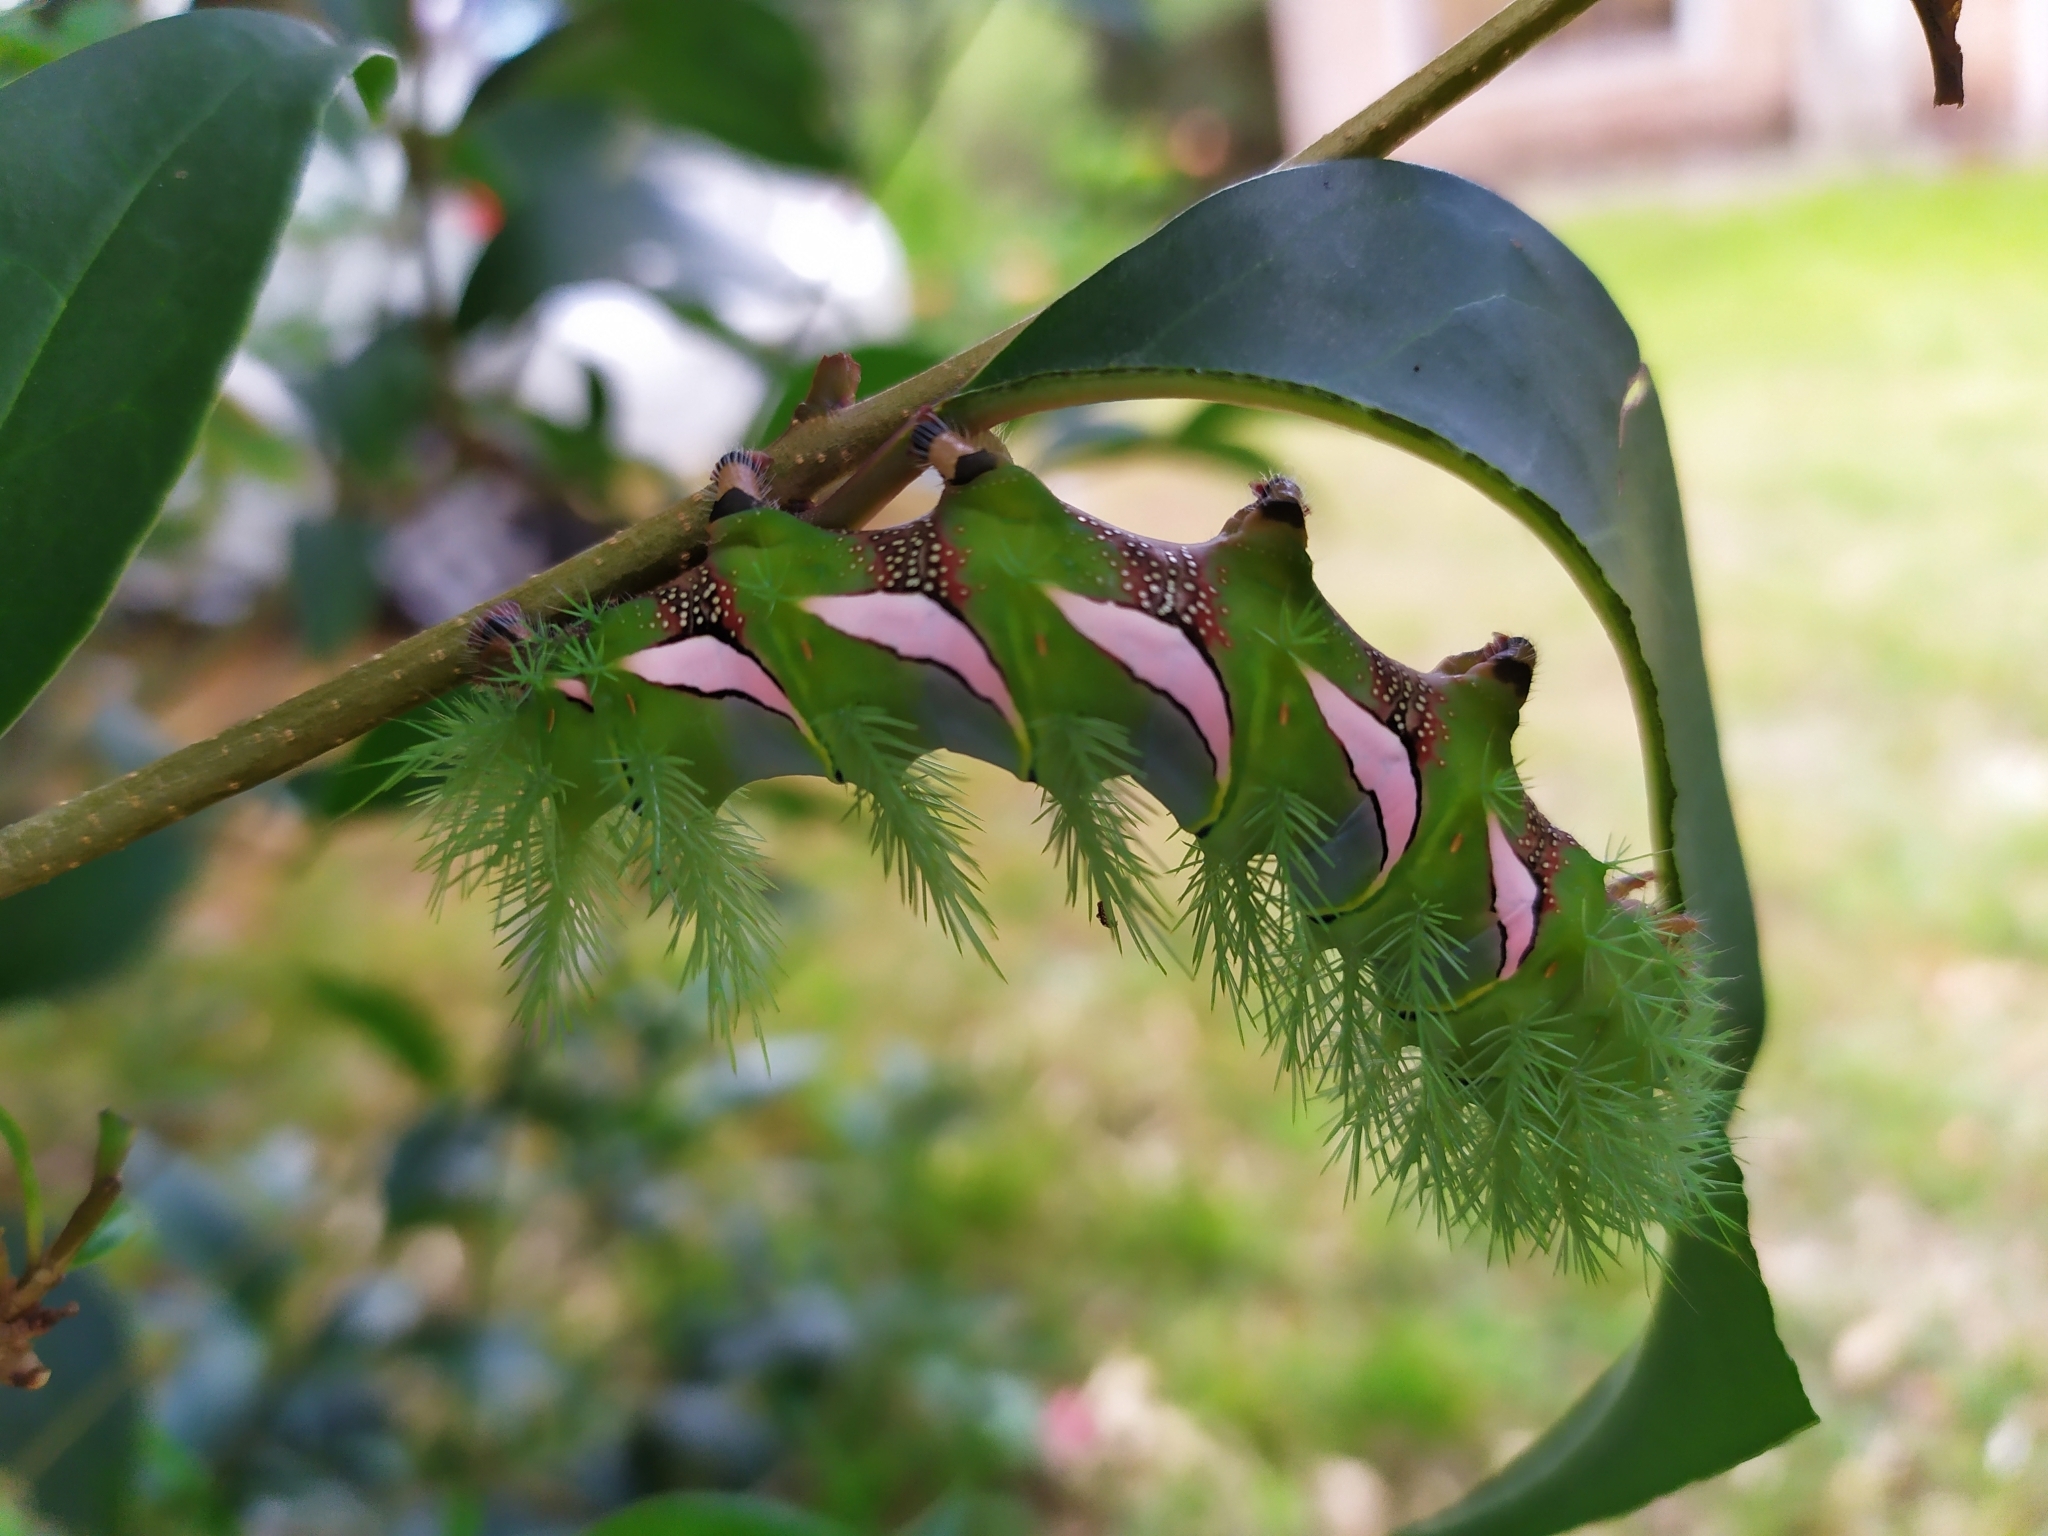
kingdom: Animalia
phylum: Arthropoda
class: Insecta
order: Lepidoptera
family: Saturniidae
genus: Automeris
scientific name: Automeris naranja
